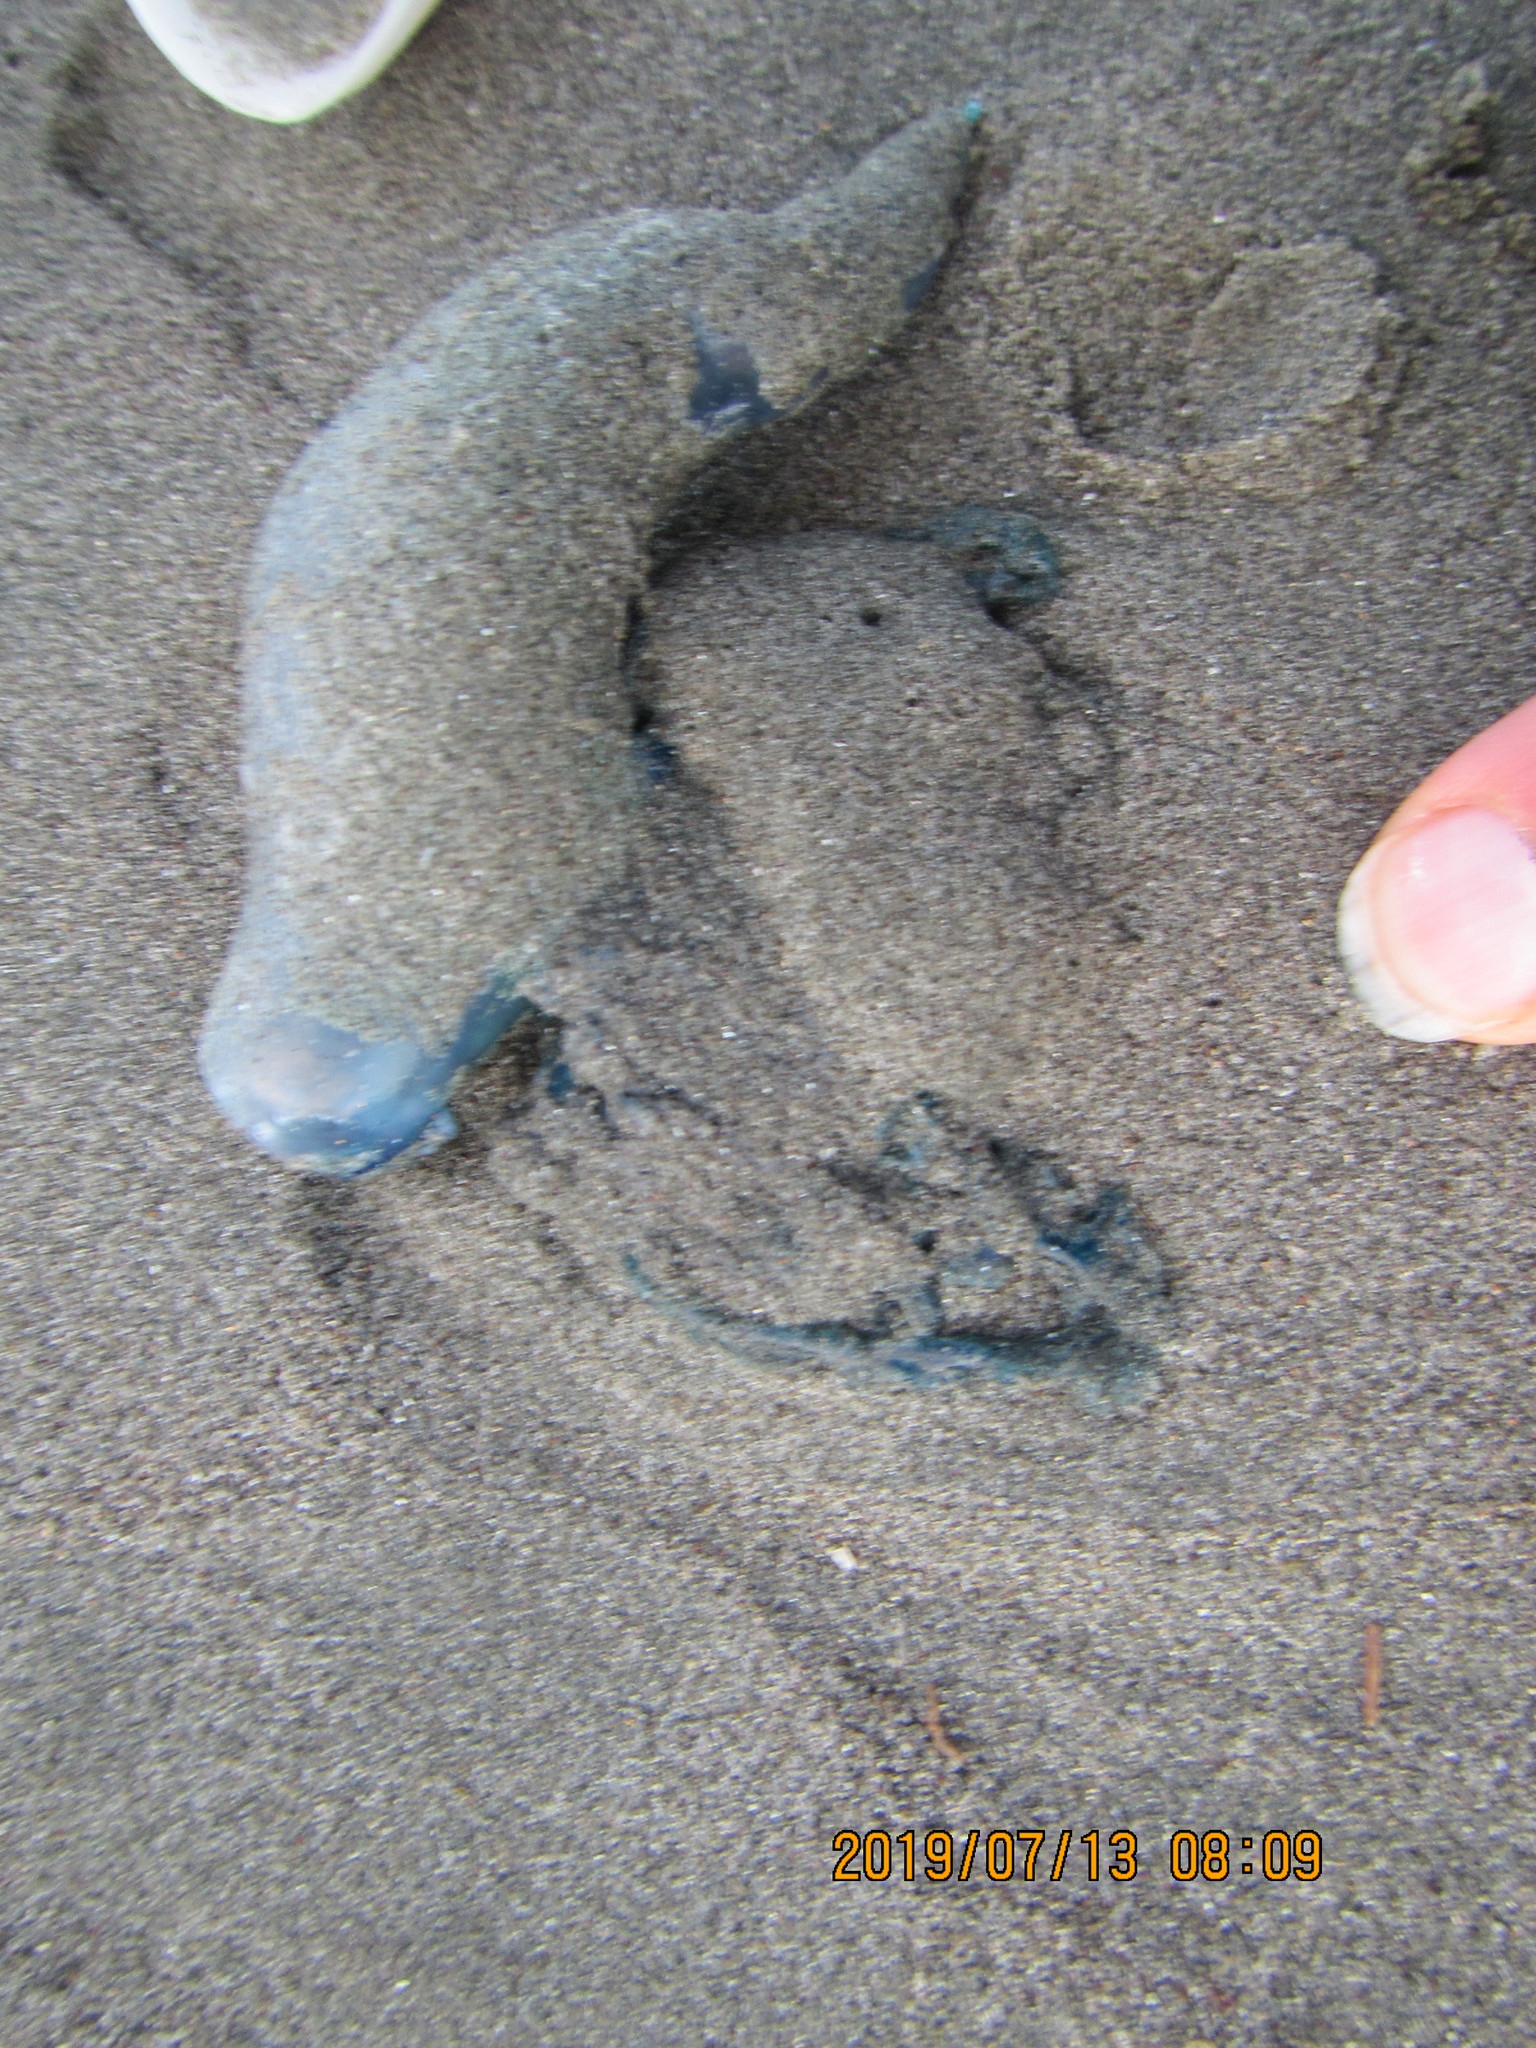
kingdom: Animalia
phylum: Cnidaria
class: Hydrozoa
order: Siphonophorae
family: Physaliidae
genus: Physalia
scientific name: Physalia physalis
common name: Portuguese man-of-war
